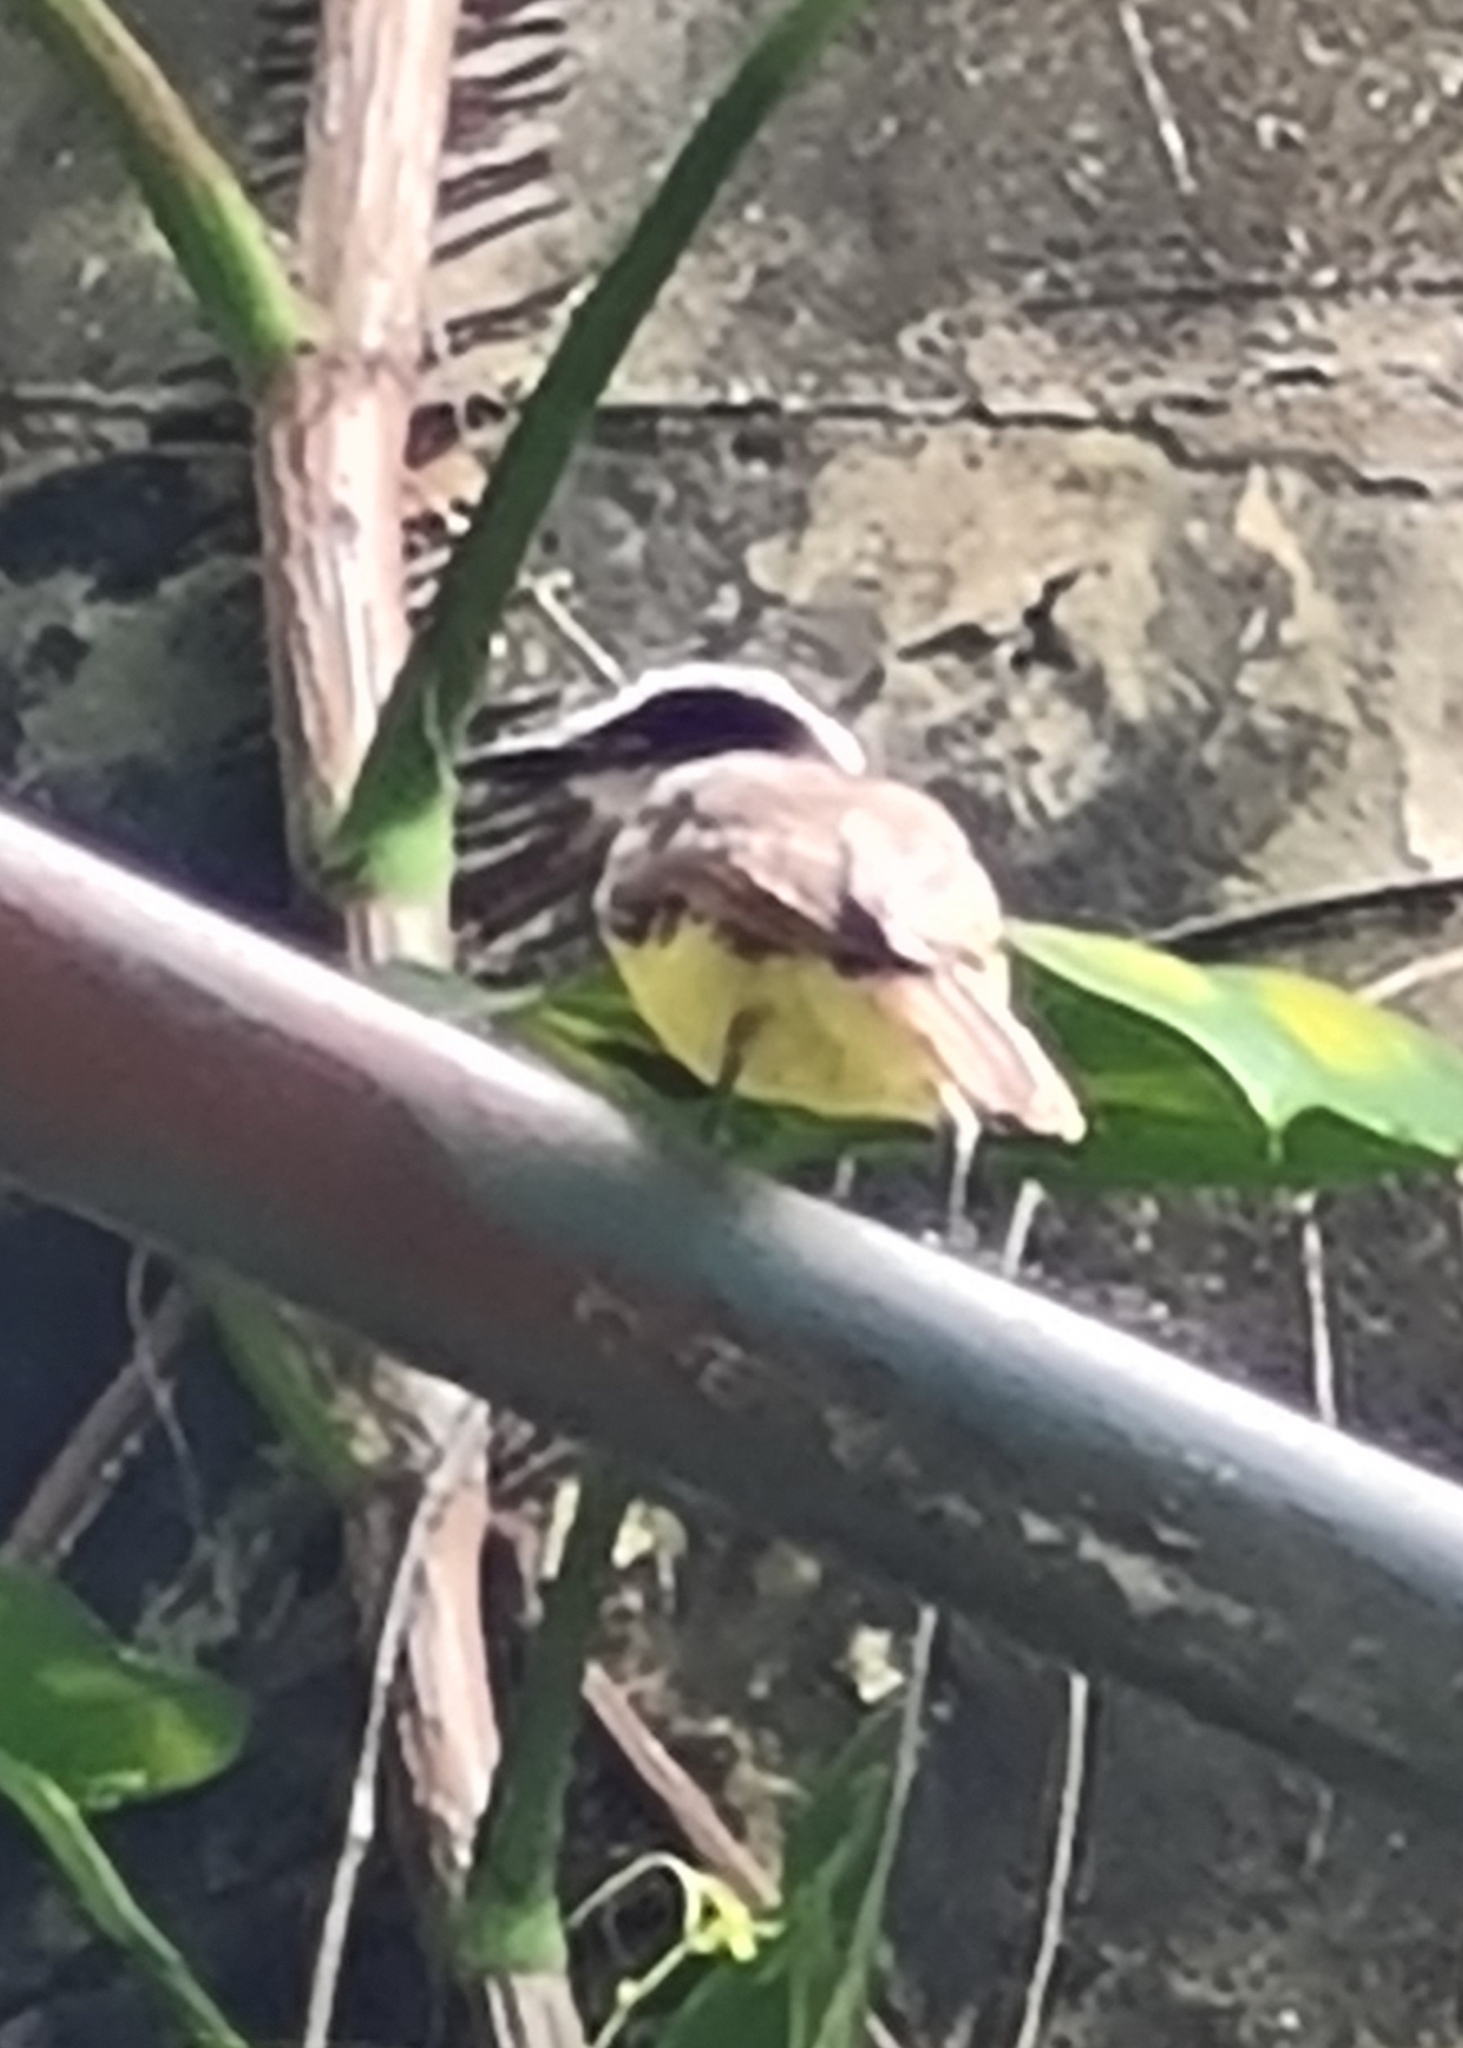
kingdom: Animalia
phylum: Chordata
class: Aves
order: Passeriformes
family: Tyrannidae
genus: Pitangus
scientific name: Pitangus sulphuratus
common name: Great kiskadee
